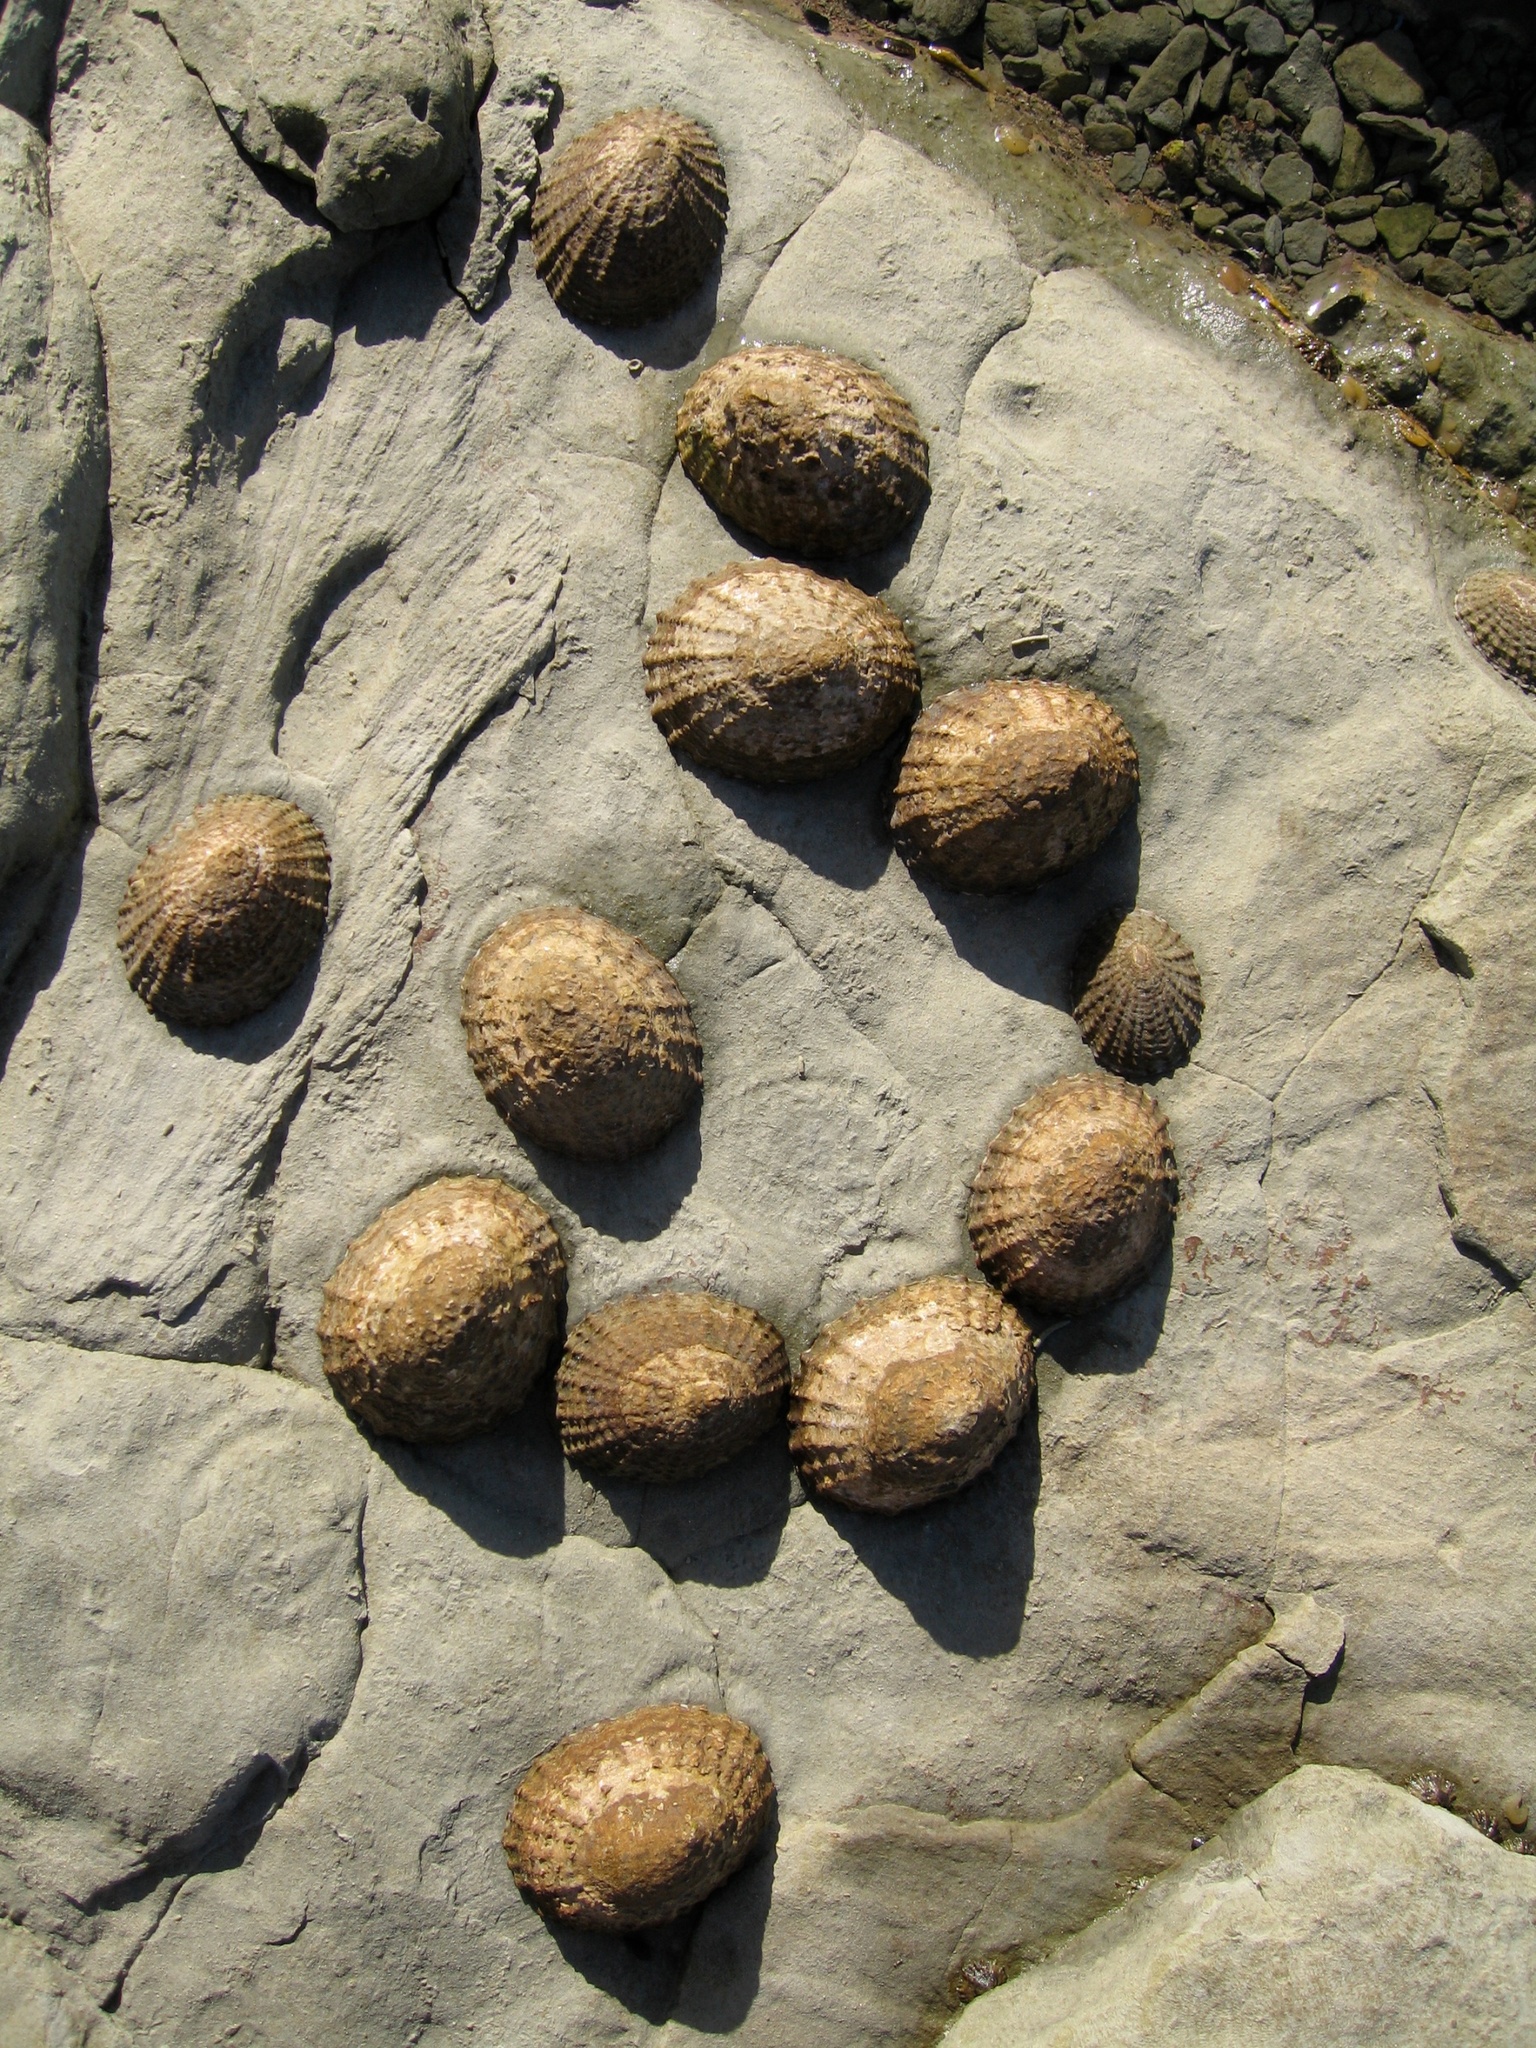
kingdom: Animalia
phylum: Mollusca
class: Gastropoda
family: Nacellidae
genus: Cellana
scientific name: Cellana denticulata
